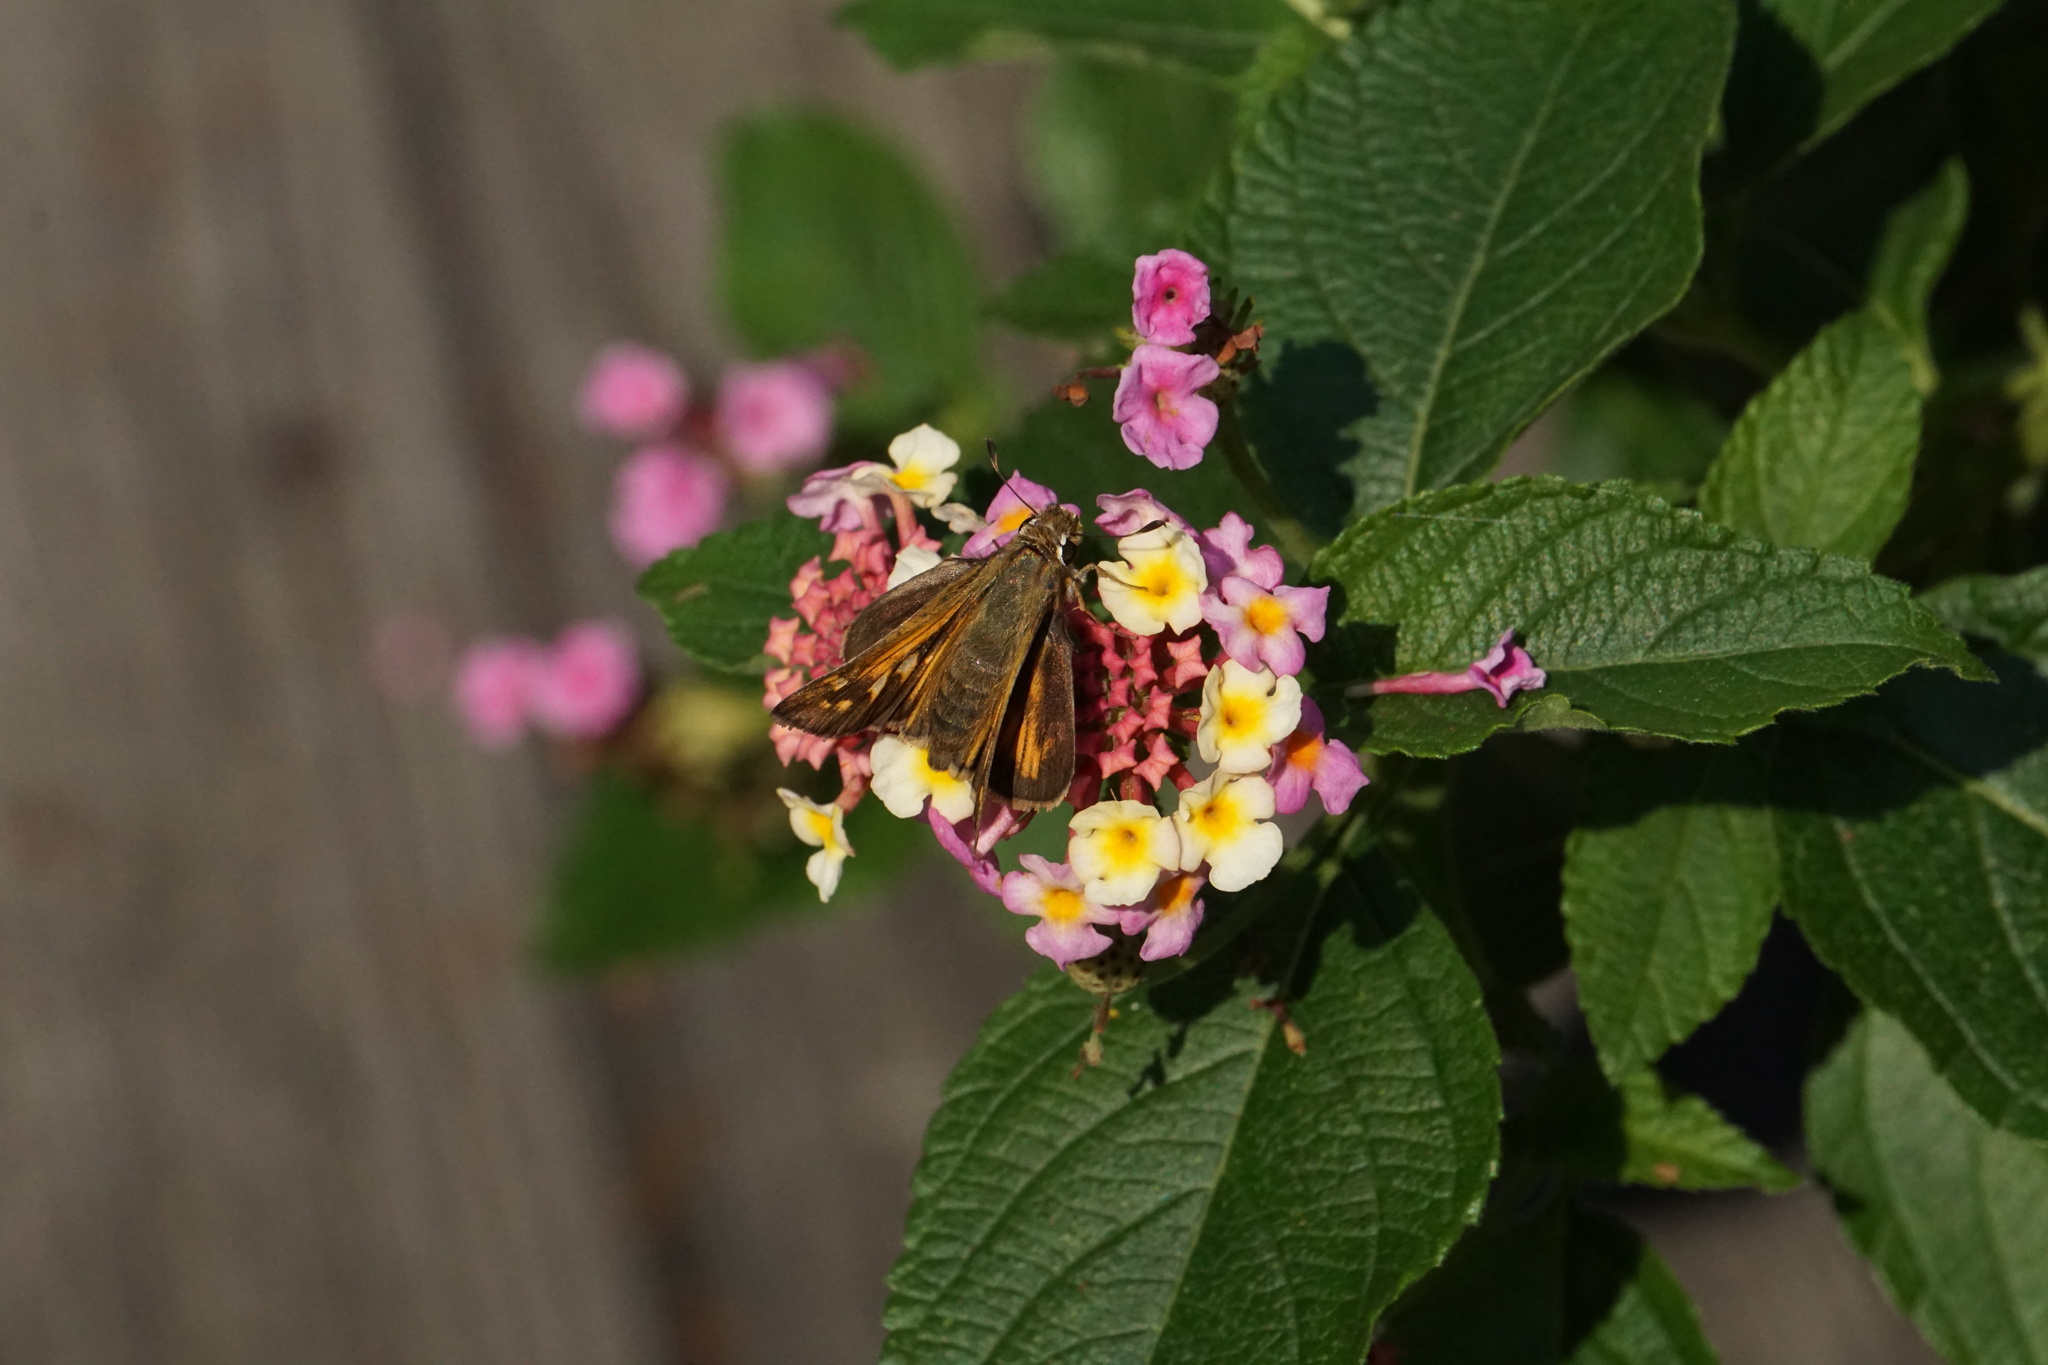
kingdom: Animalia
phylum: Arthropoda
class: Insecta
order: Lepidoptera
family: Hesperiidae
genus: Atalopedes
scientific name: Atalopedes
